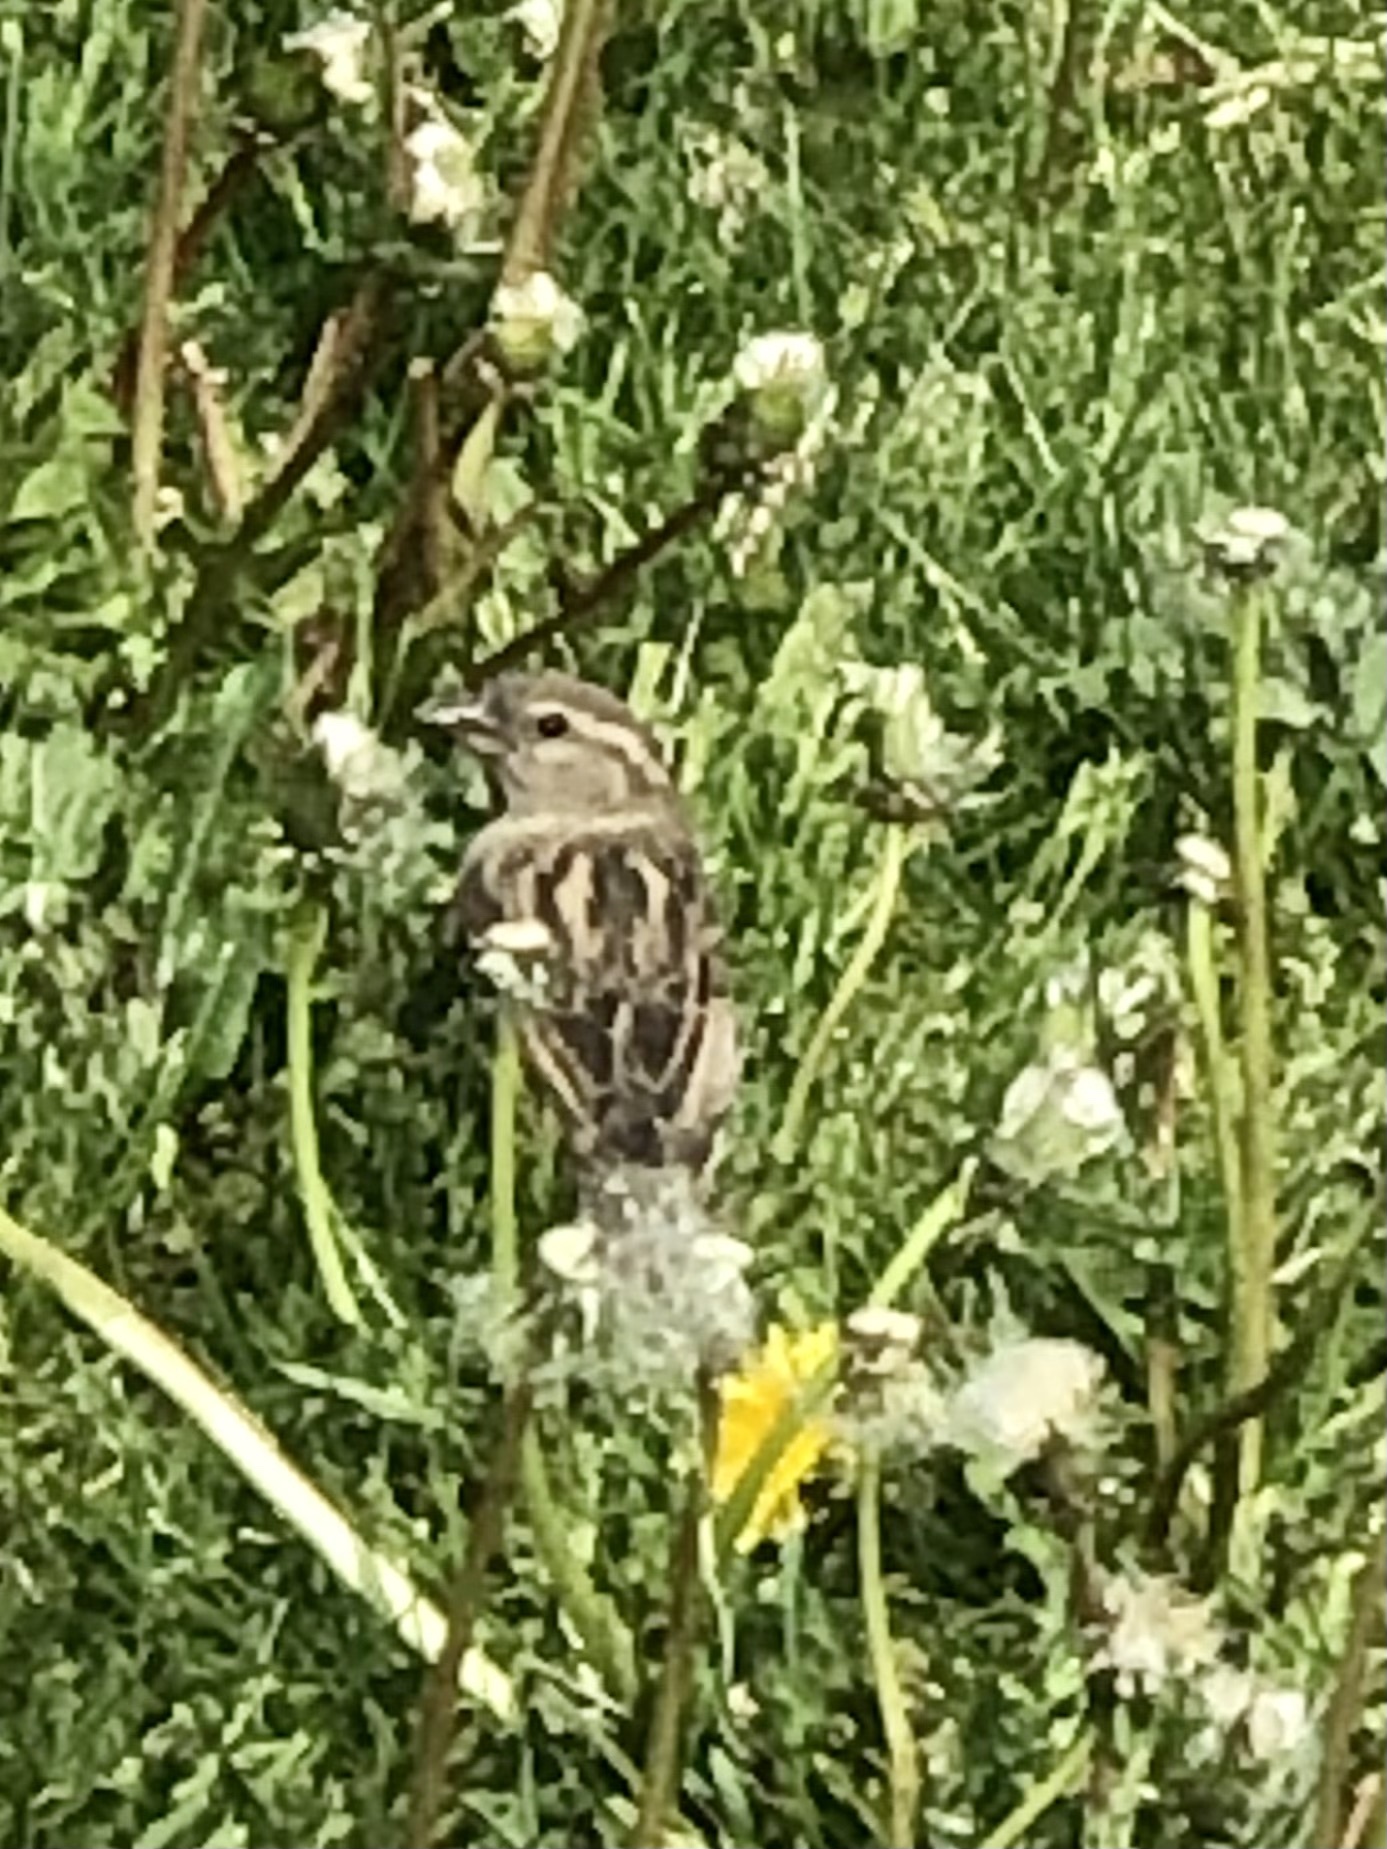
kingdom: Animalia
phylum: Chordata
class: Aves
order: Passeriformes
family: Passeridae
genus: Passer
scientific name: Passer domesticus
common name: House sparrow
